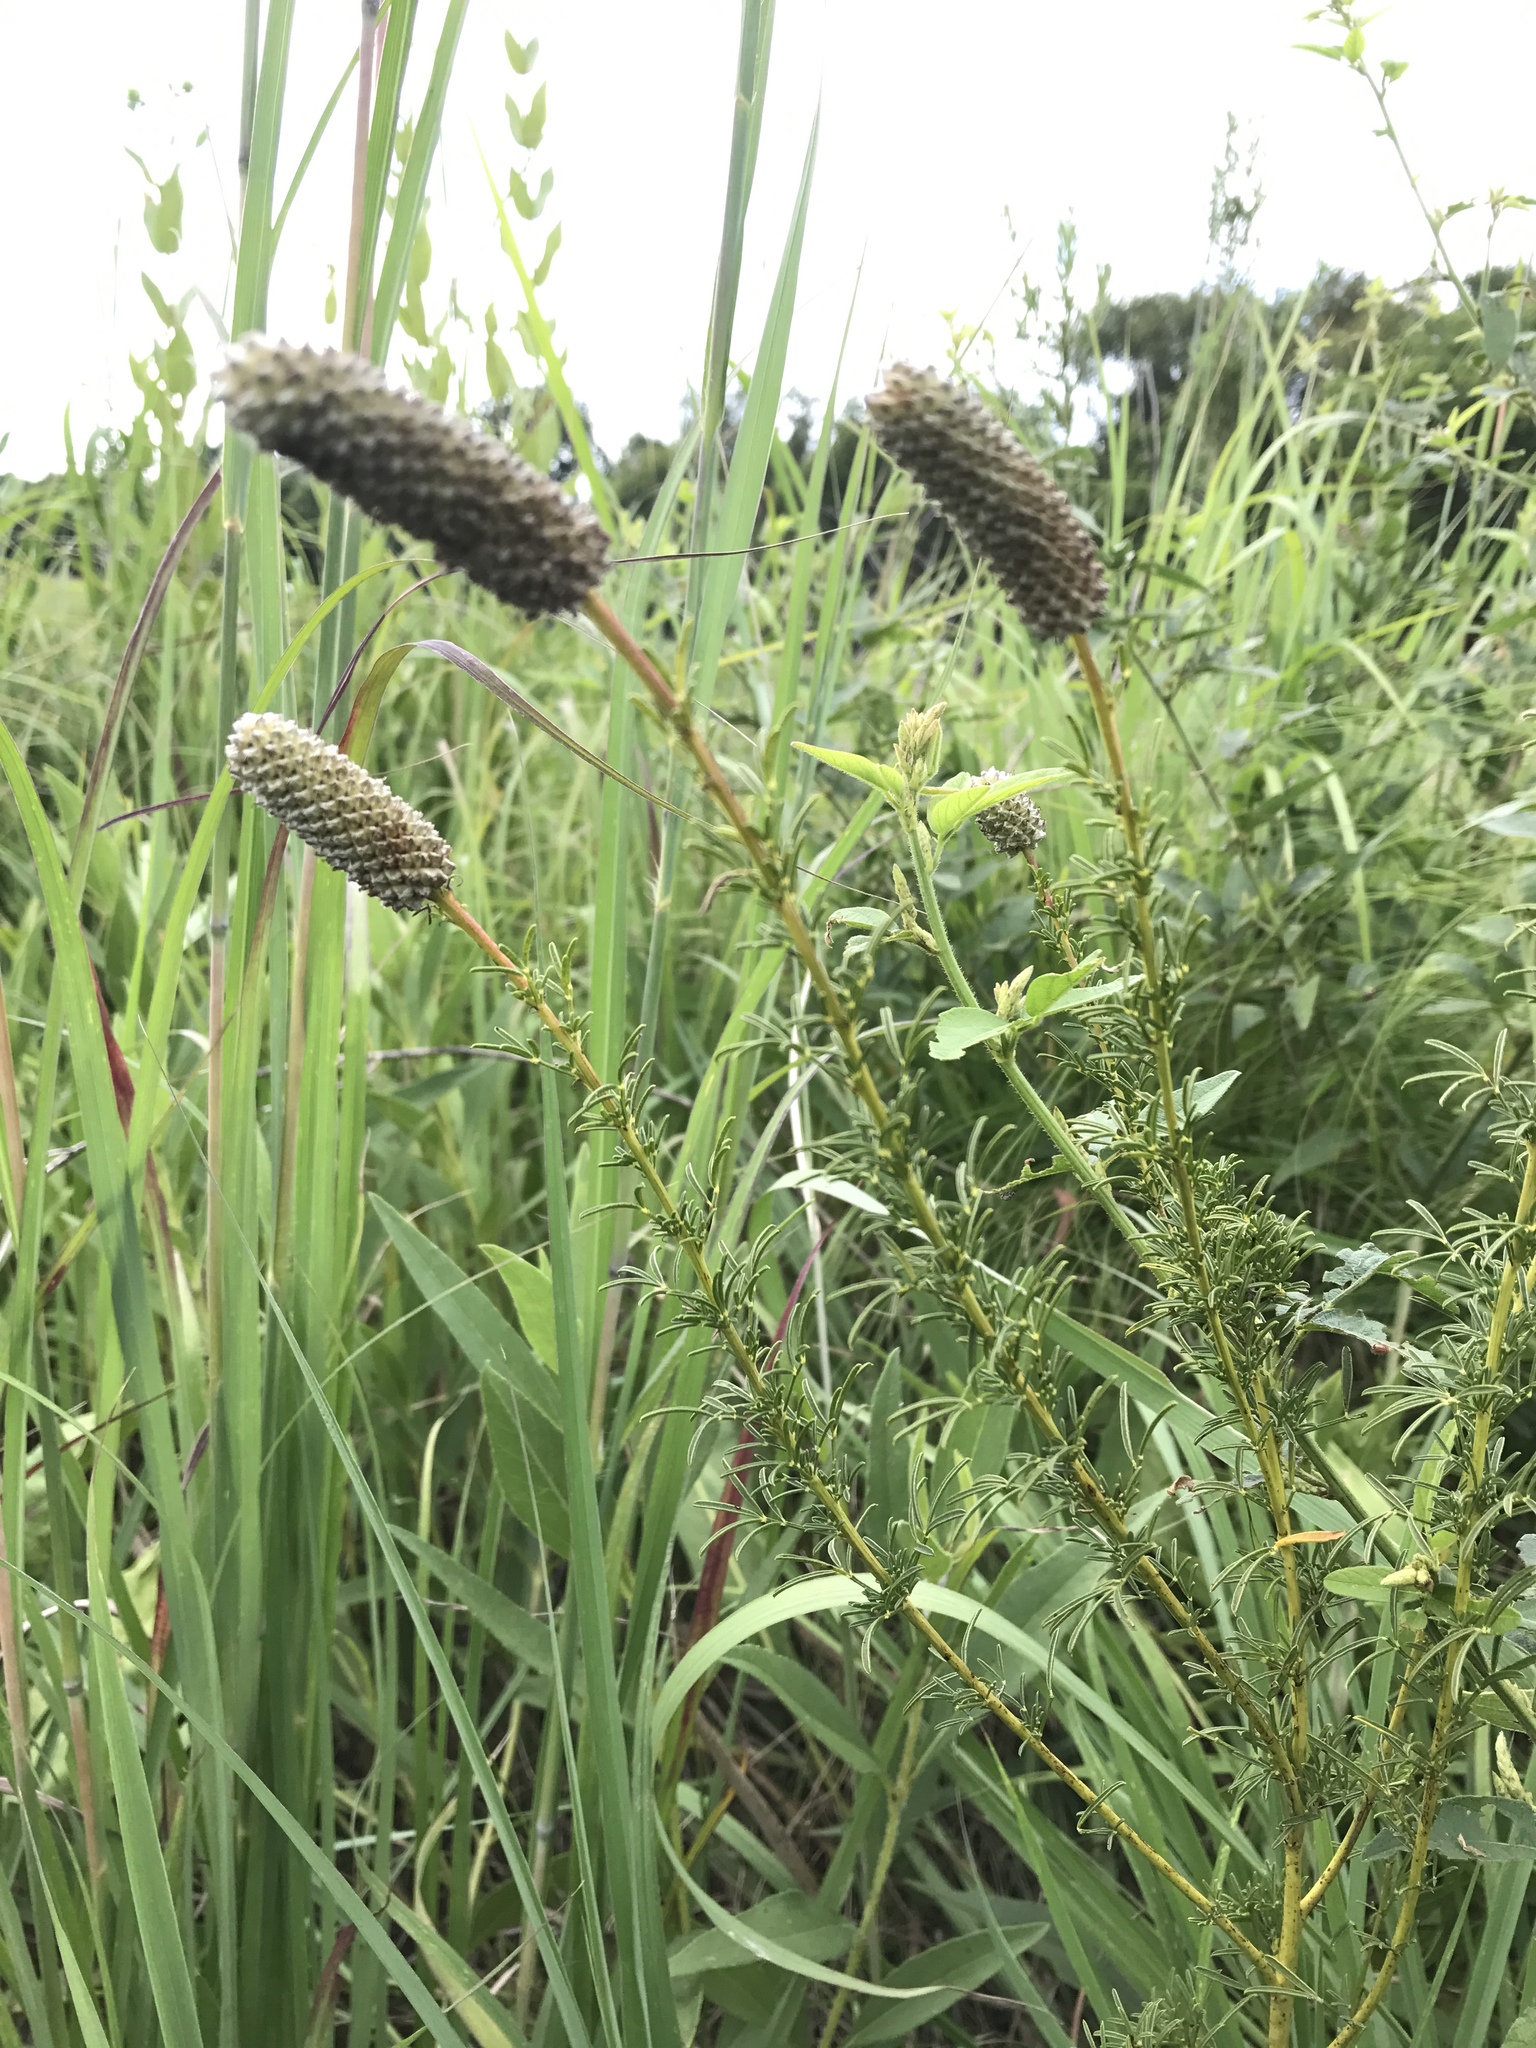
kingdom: Plantae
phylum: Tracheophyta
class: Magnoliopsida
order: Fabales
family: Fabaceae
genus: Dalea
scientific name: Dalea purpurea
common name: Purple prairie-clover
